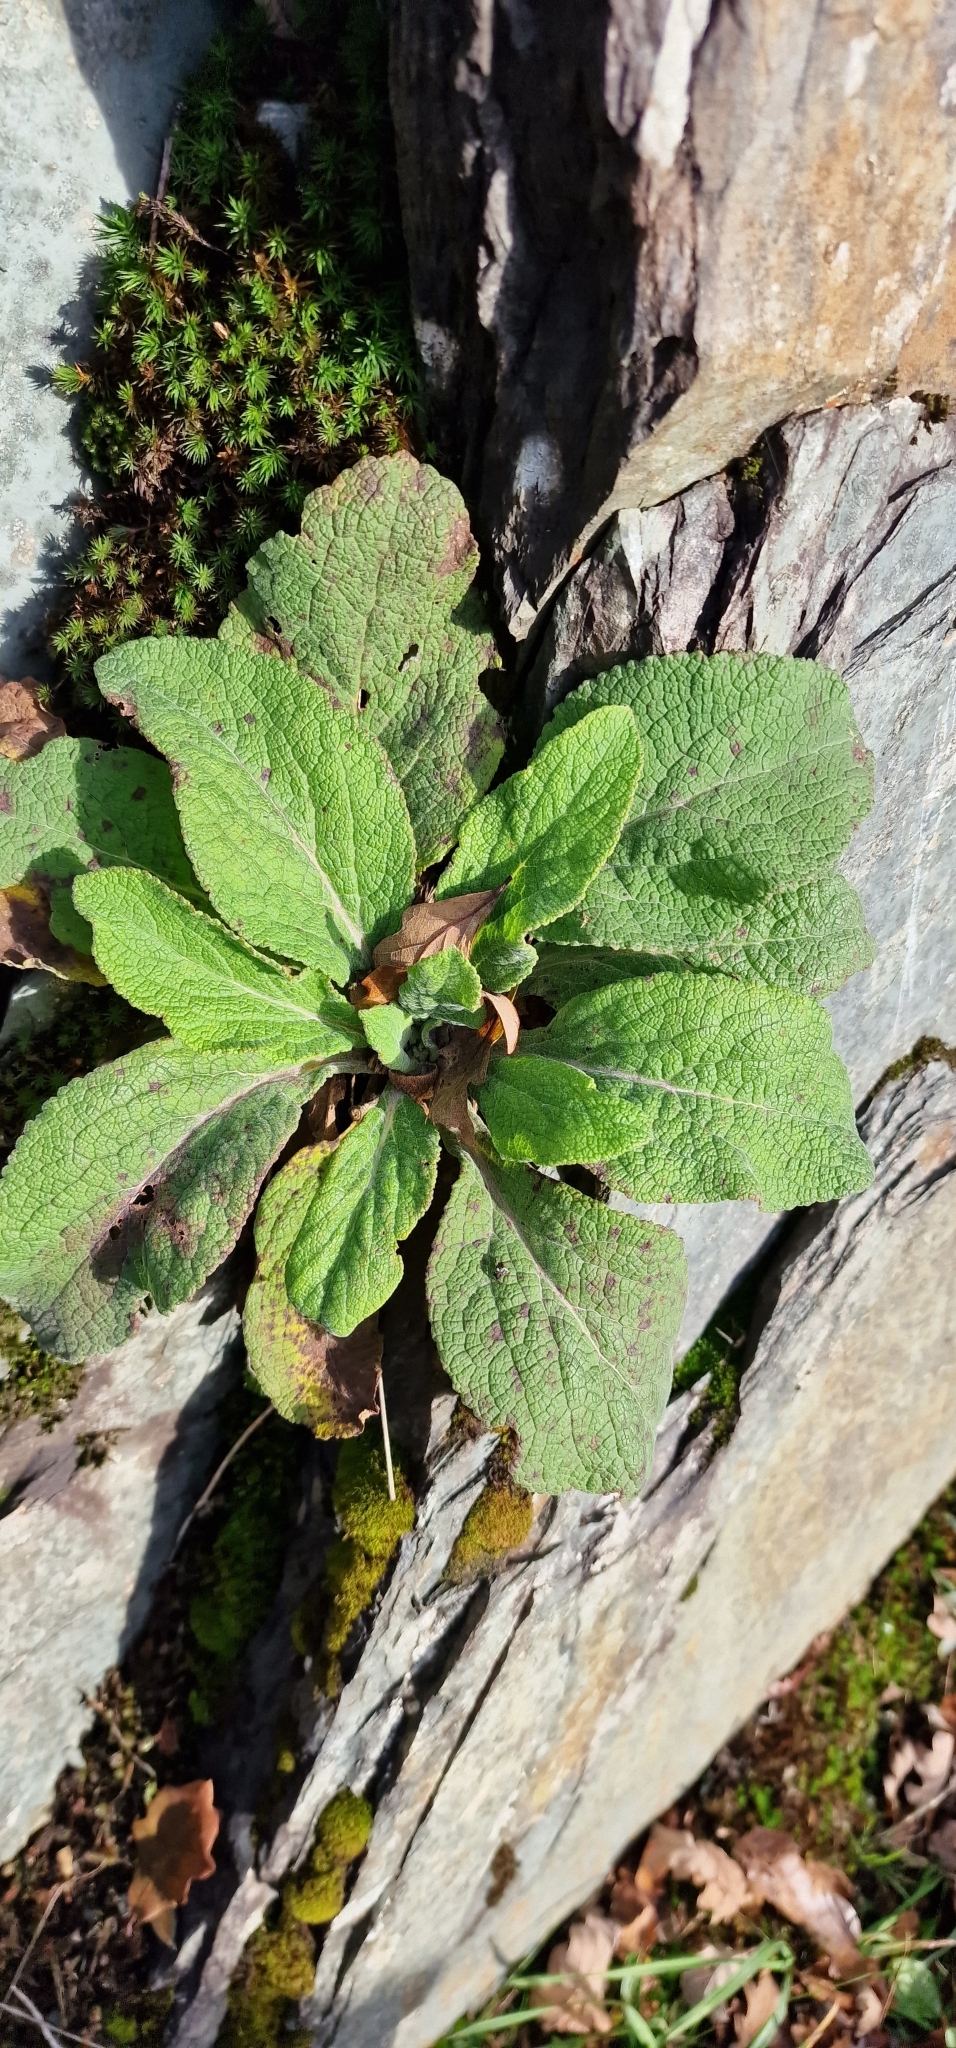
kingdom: Plantae
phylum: Tracheophyta
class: Magnoliopsida
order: Lamiales
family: Plantaginaceae
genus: Digitalis
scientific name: Digitalis purpurea
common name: Foxglove
